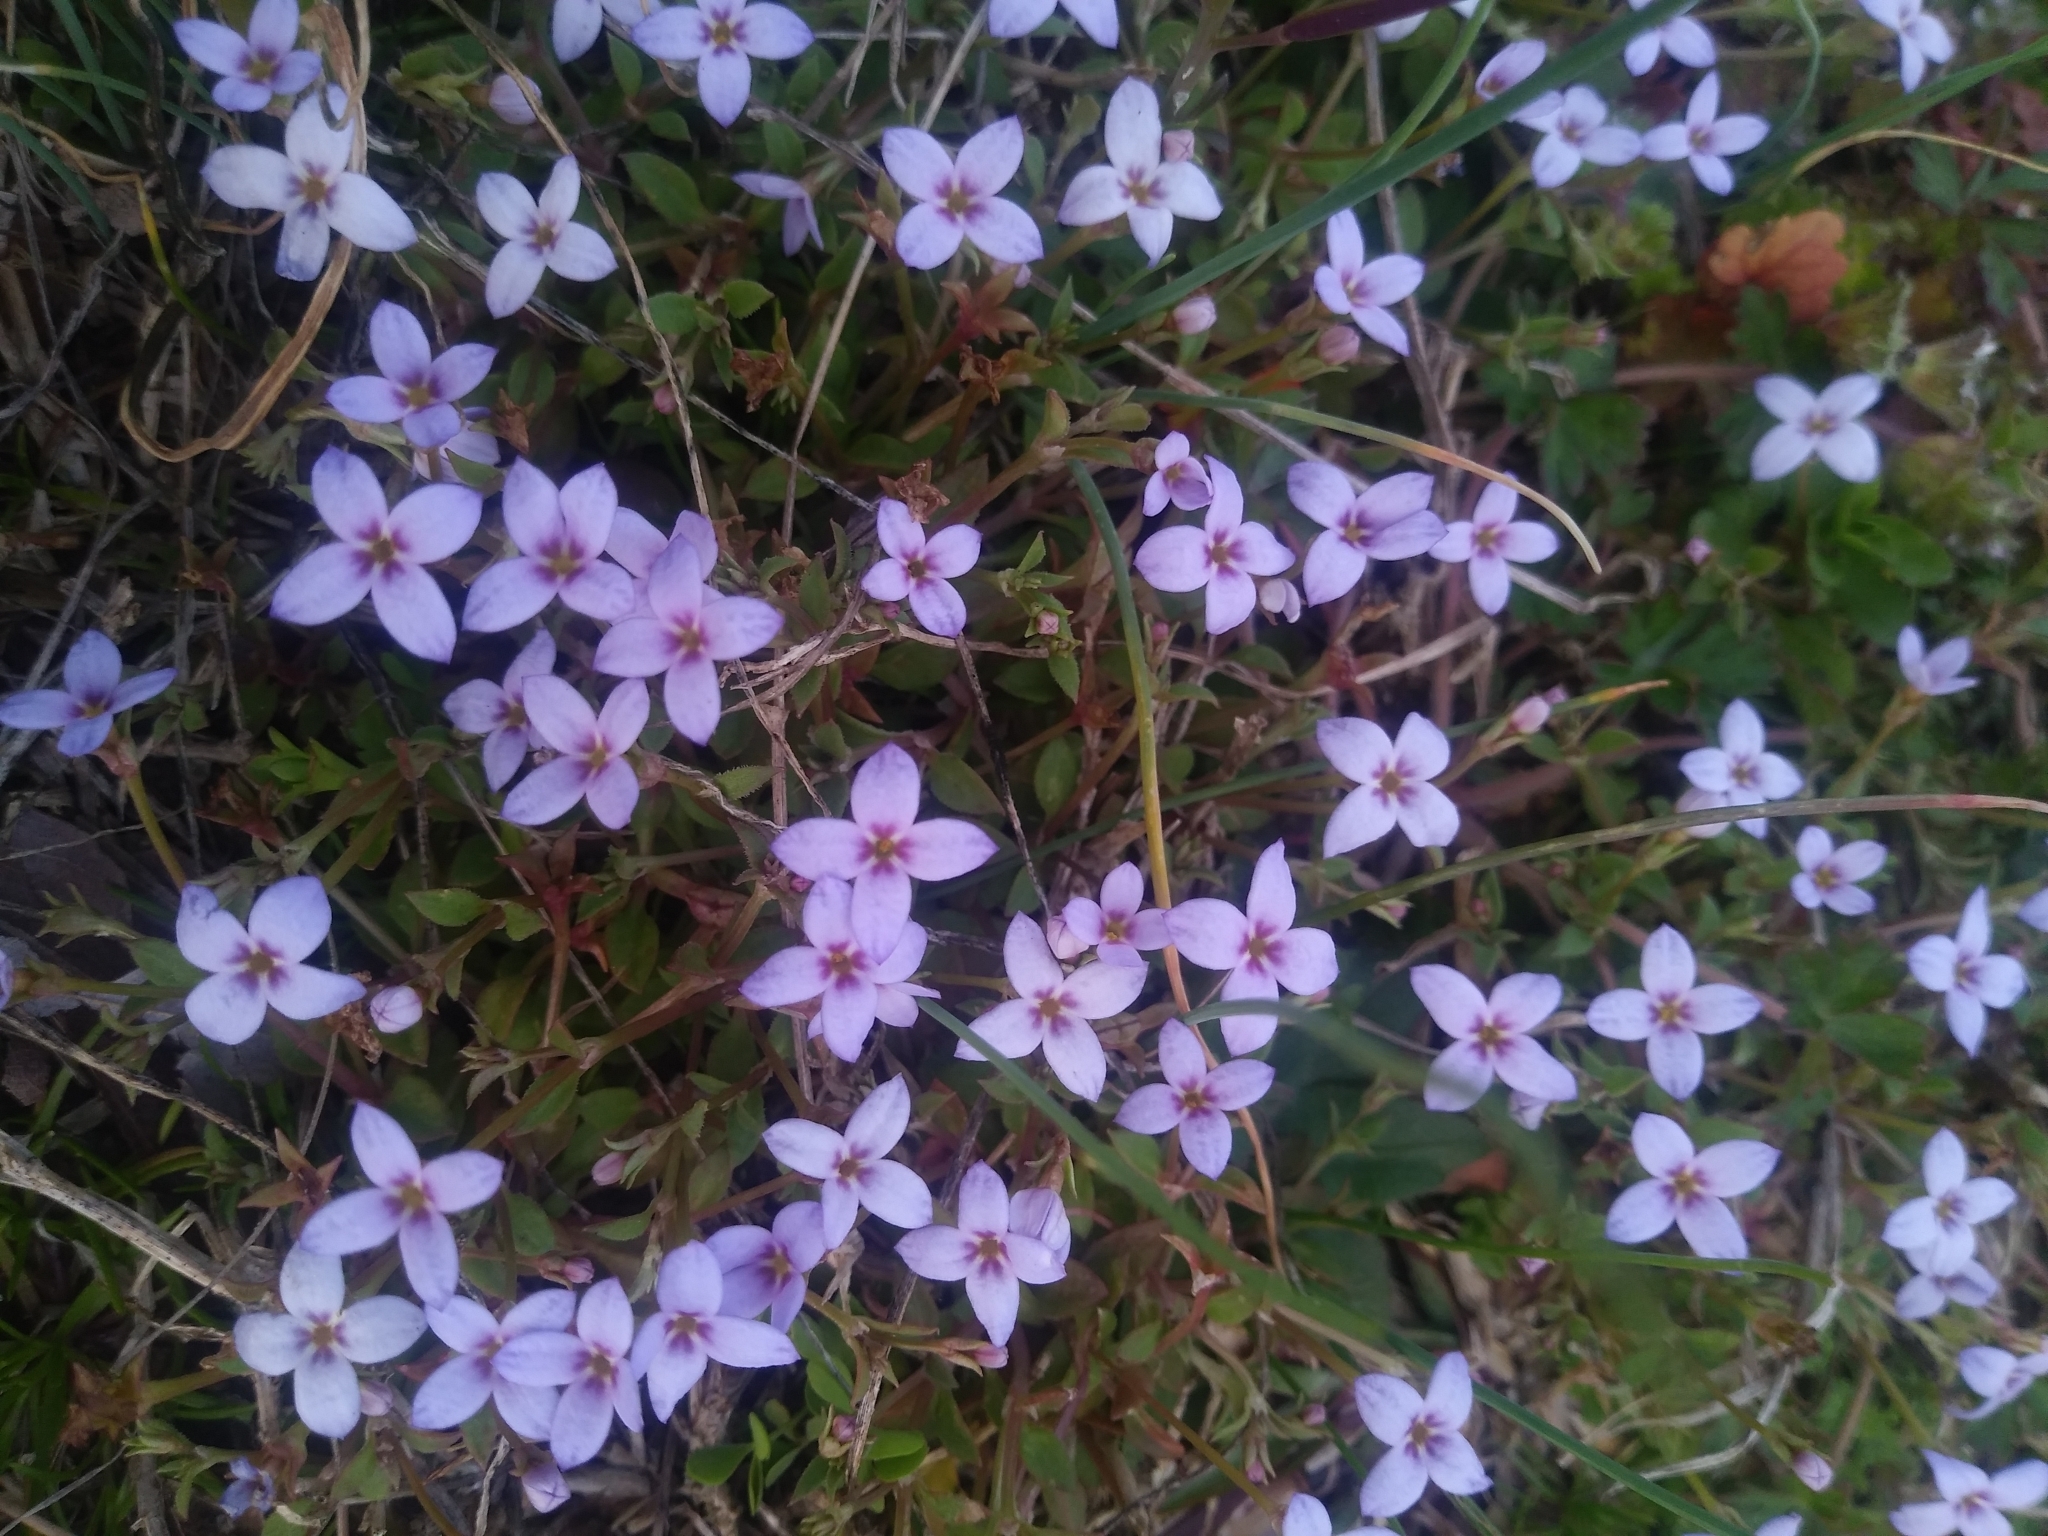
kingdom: Plantae
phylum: Tracheophyta
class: Magnoliopsida
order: Gentianales
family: Rubiaceae
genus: Houstonia
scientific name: Houstonia pusilla
